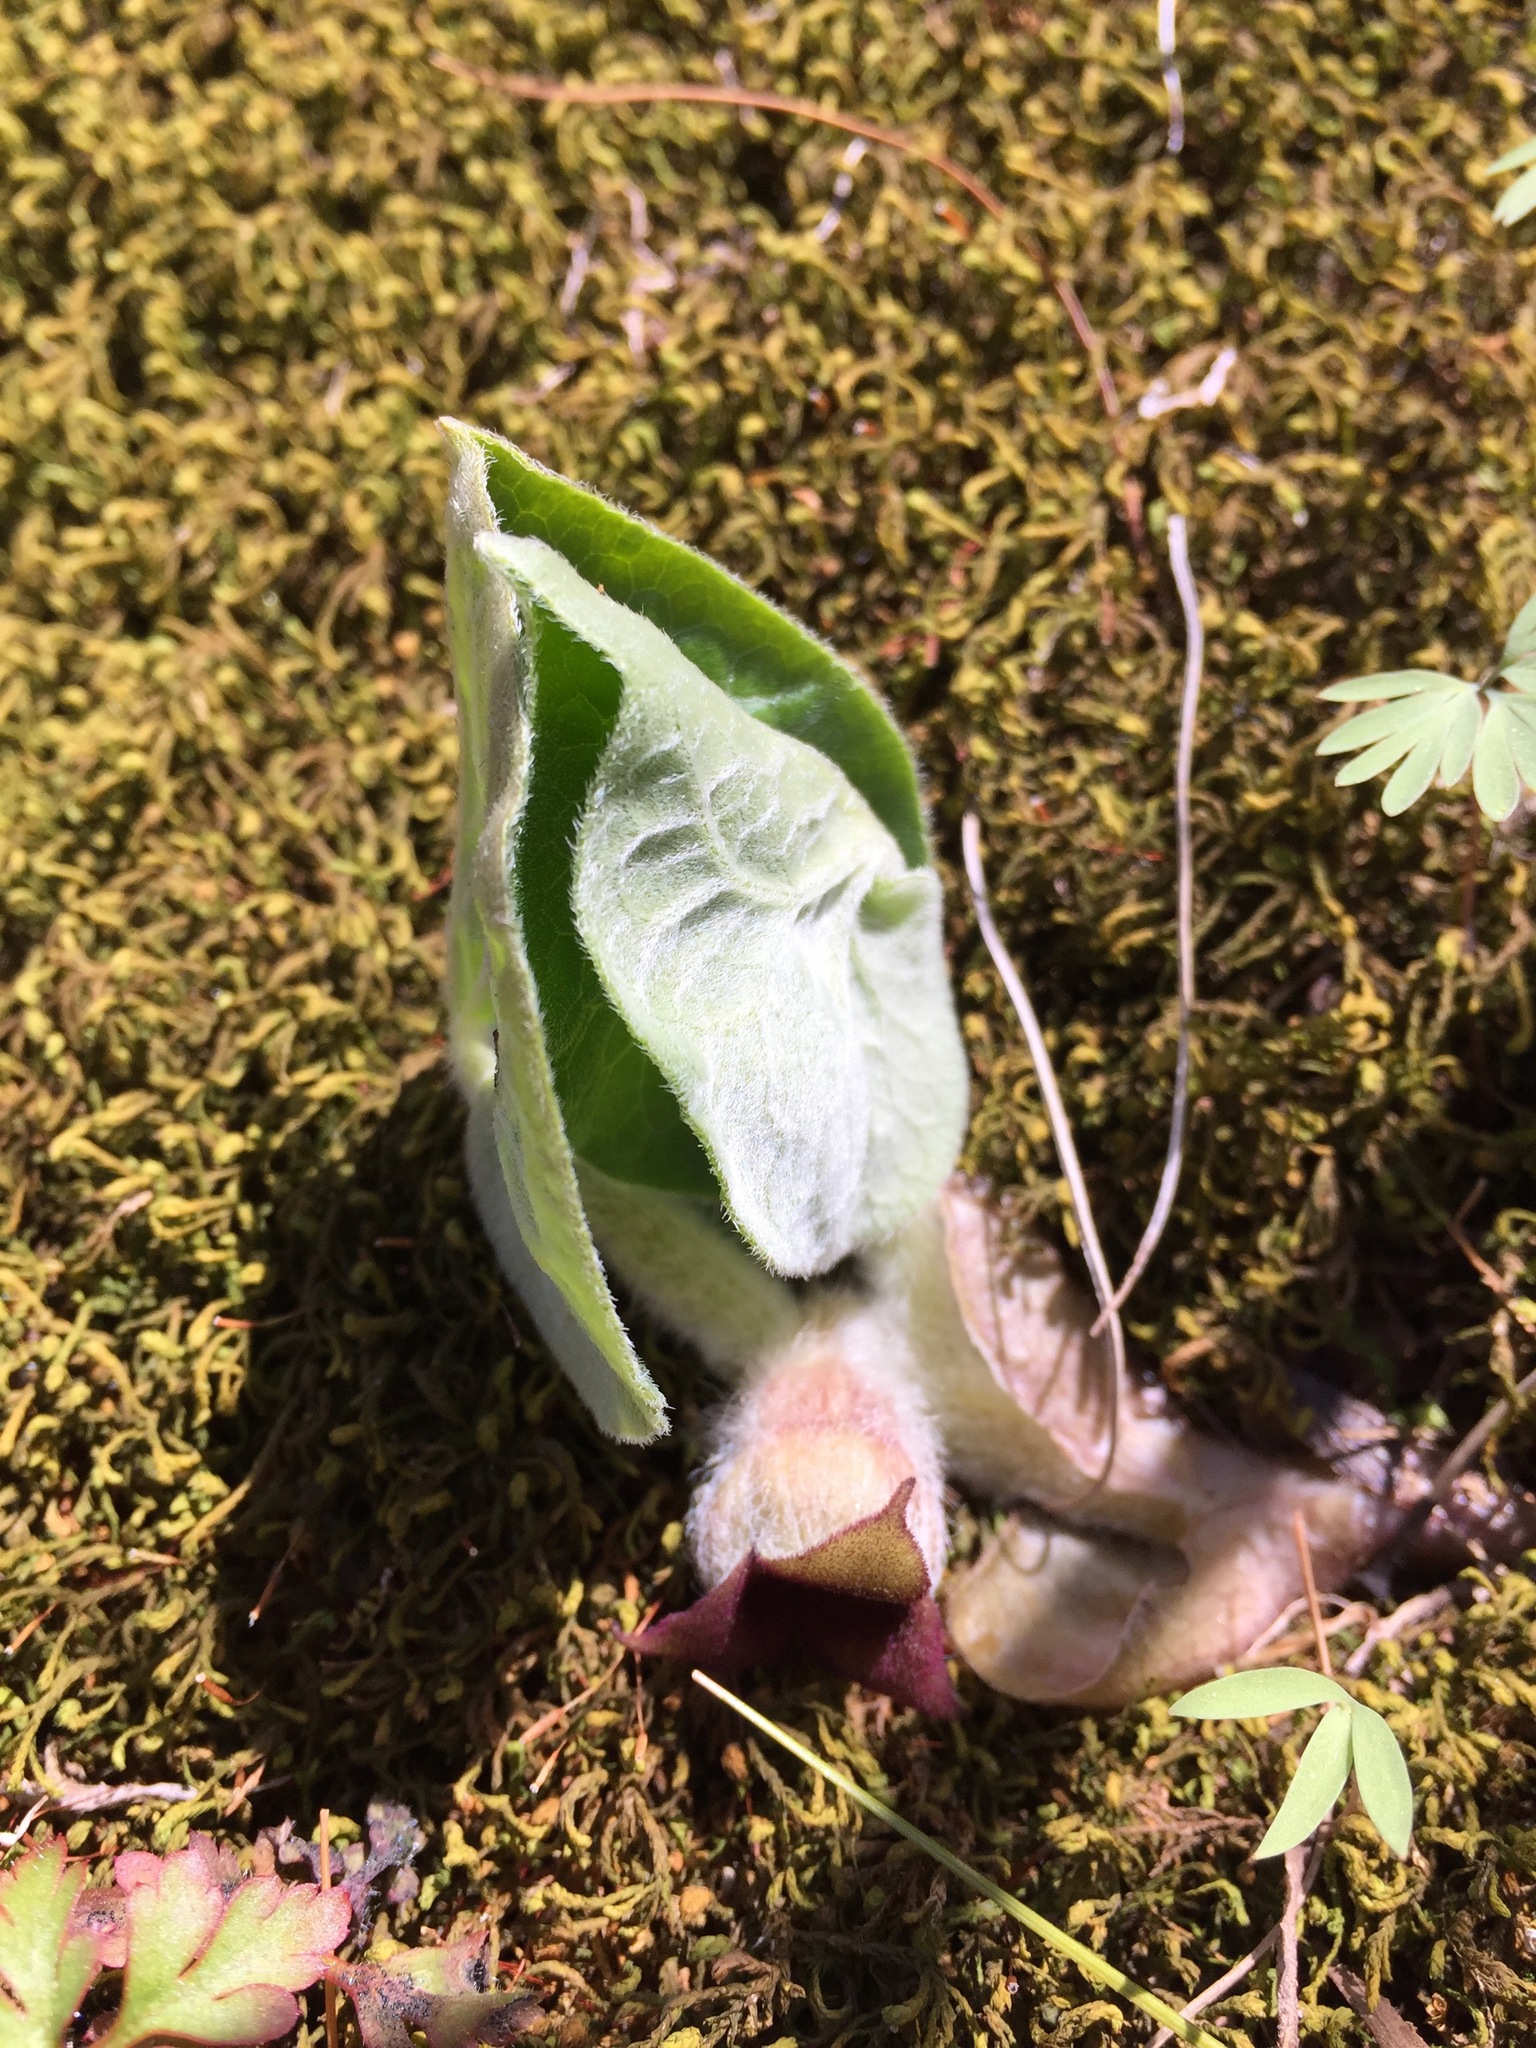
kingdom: Plantae
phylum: Tracheophyta
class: Magnoliopsida
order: Piperales
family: Aristolochiaceae
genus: Asarum
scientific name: Asarum canadense
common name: Wild ginger
